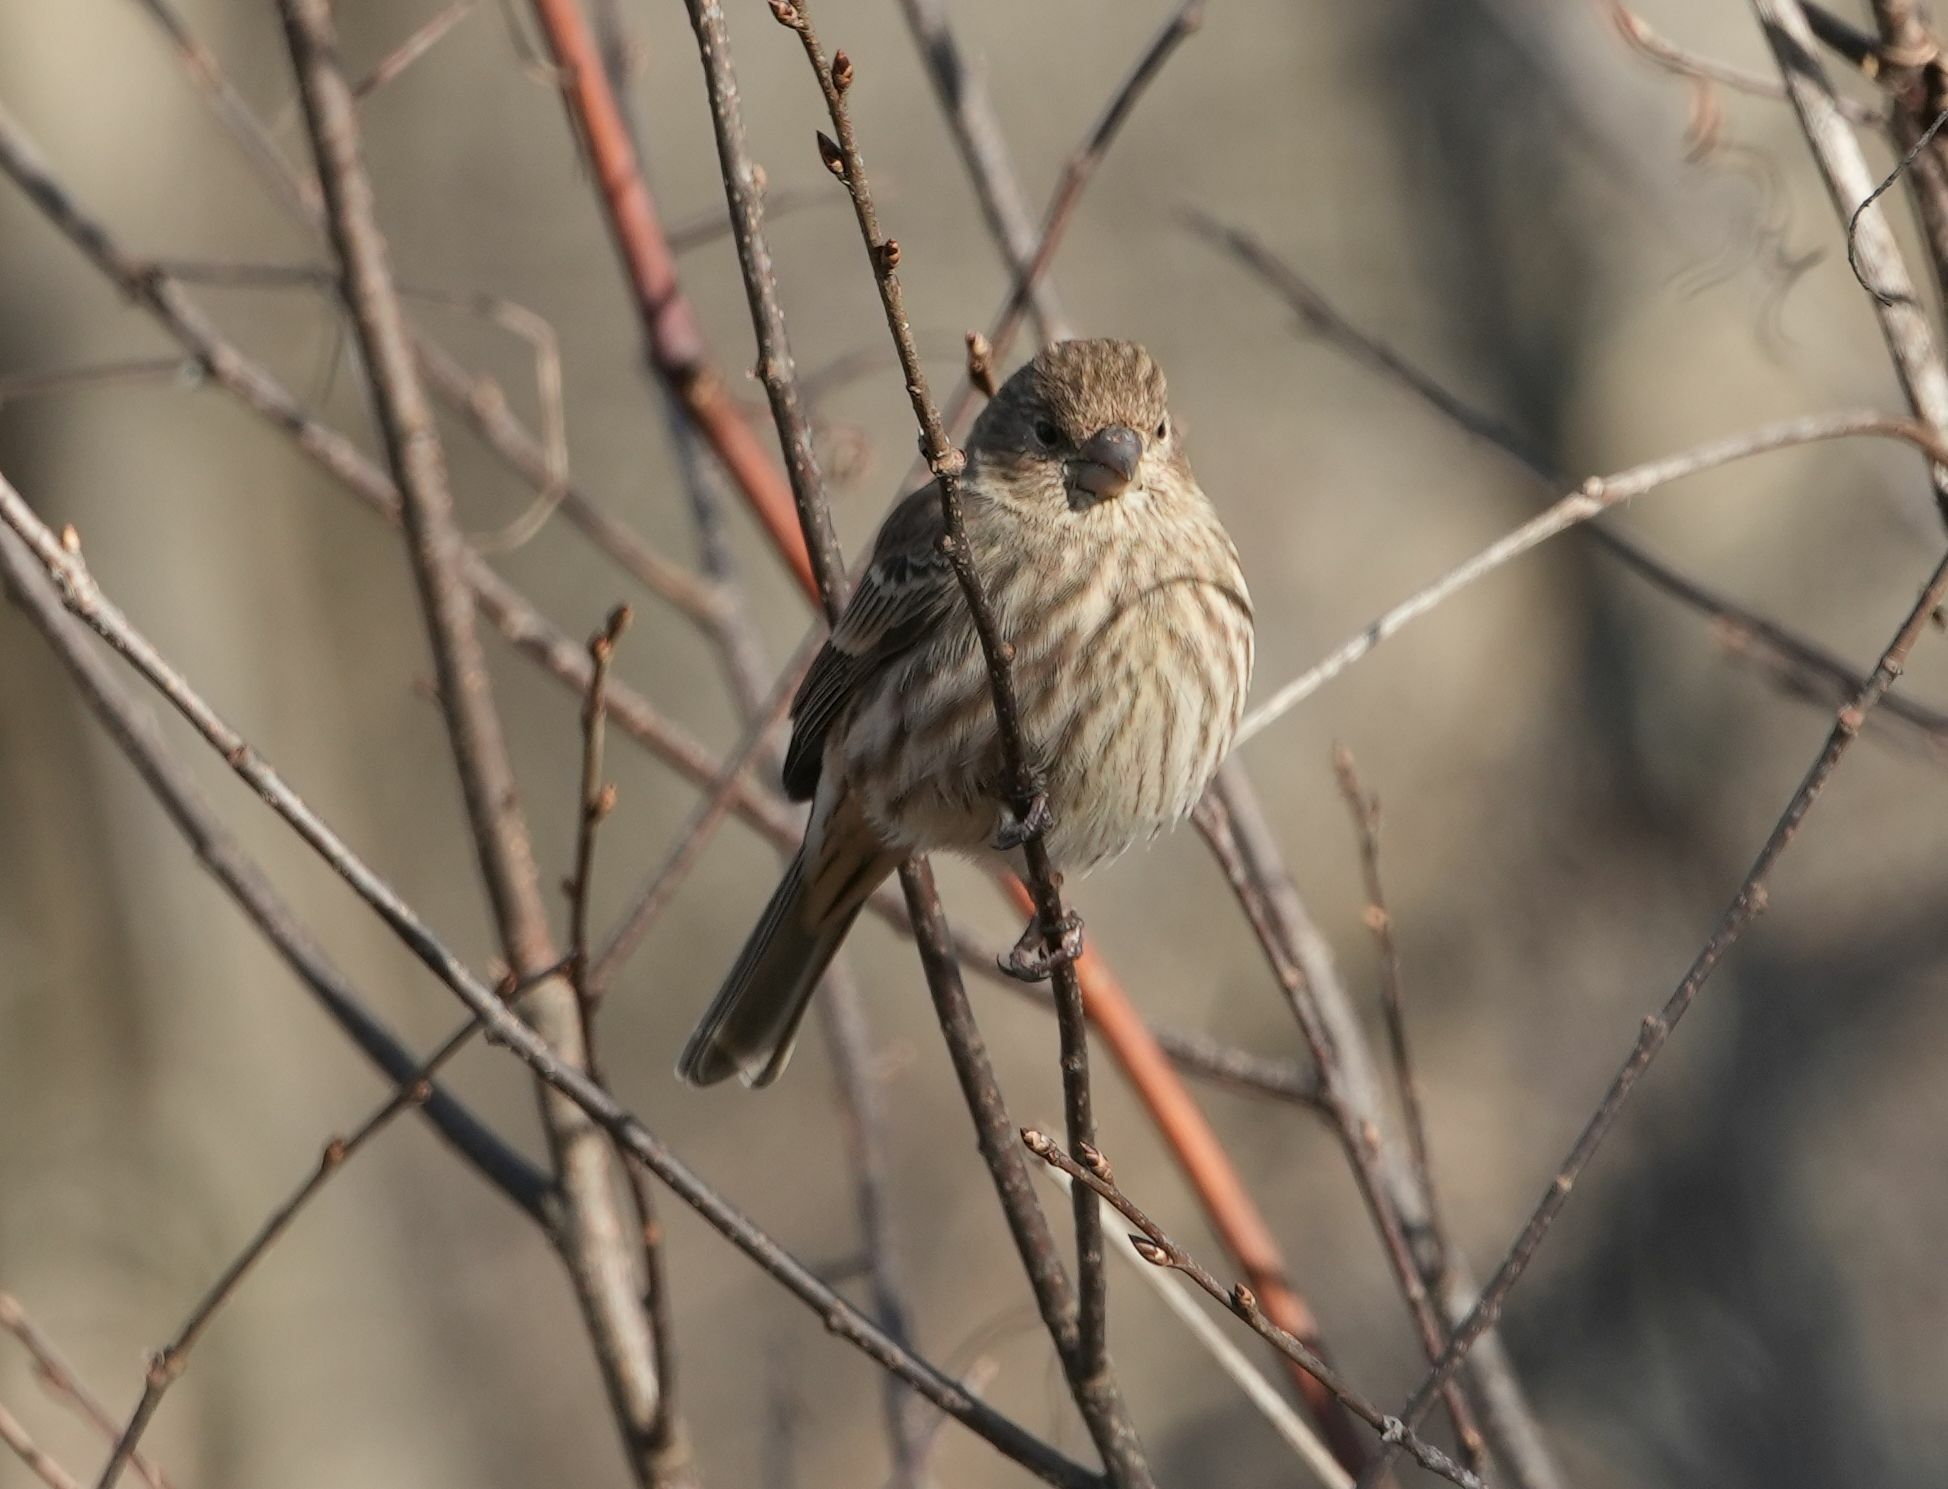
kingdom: Animalia
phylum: Chordata
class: Aves
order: Passeriformes
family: Fringillidae
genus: Haemorhous
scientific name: Haemorhous mexicanus
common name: House finch
